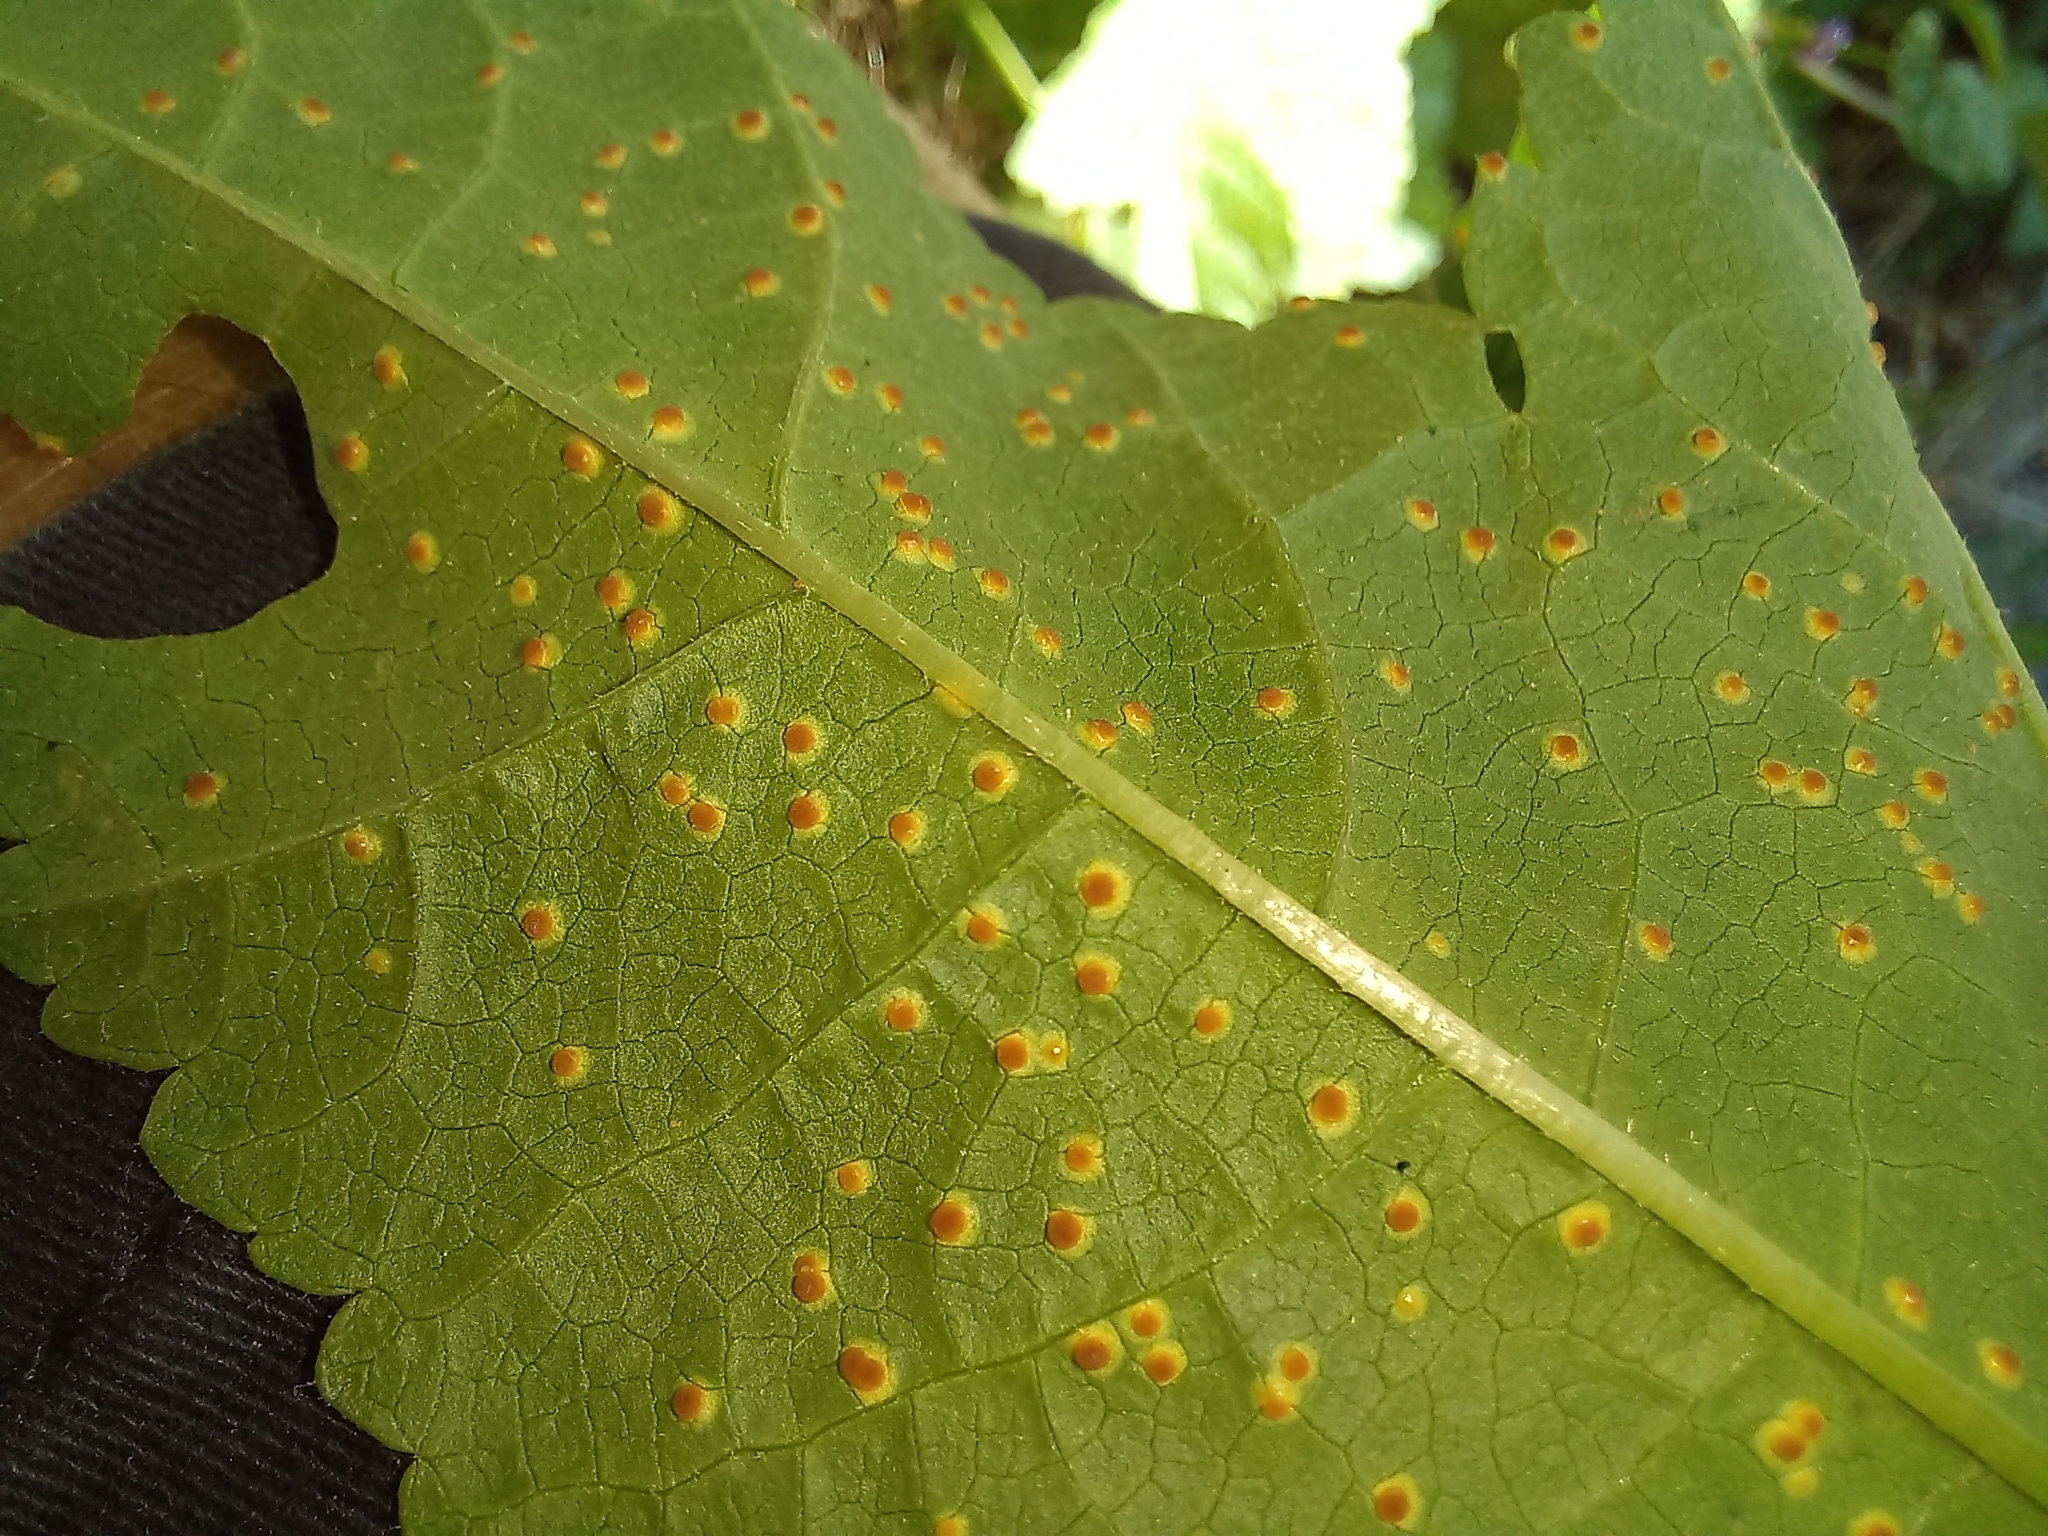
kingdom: Plantae
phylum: Tracheophyta
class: Magnoliopsida
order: Malvales
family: Malvaceae
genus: Malva
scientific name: Malva sylvestris
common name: Common mallow
